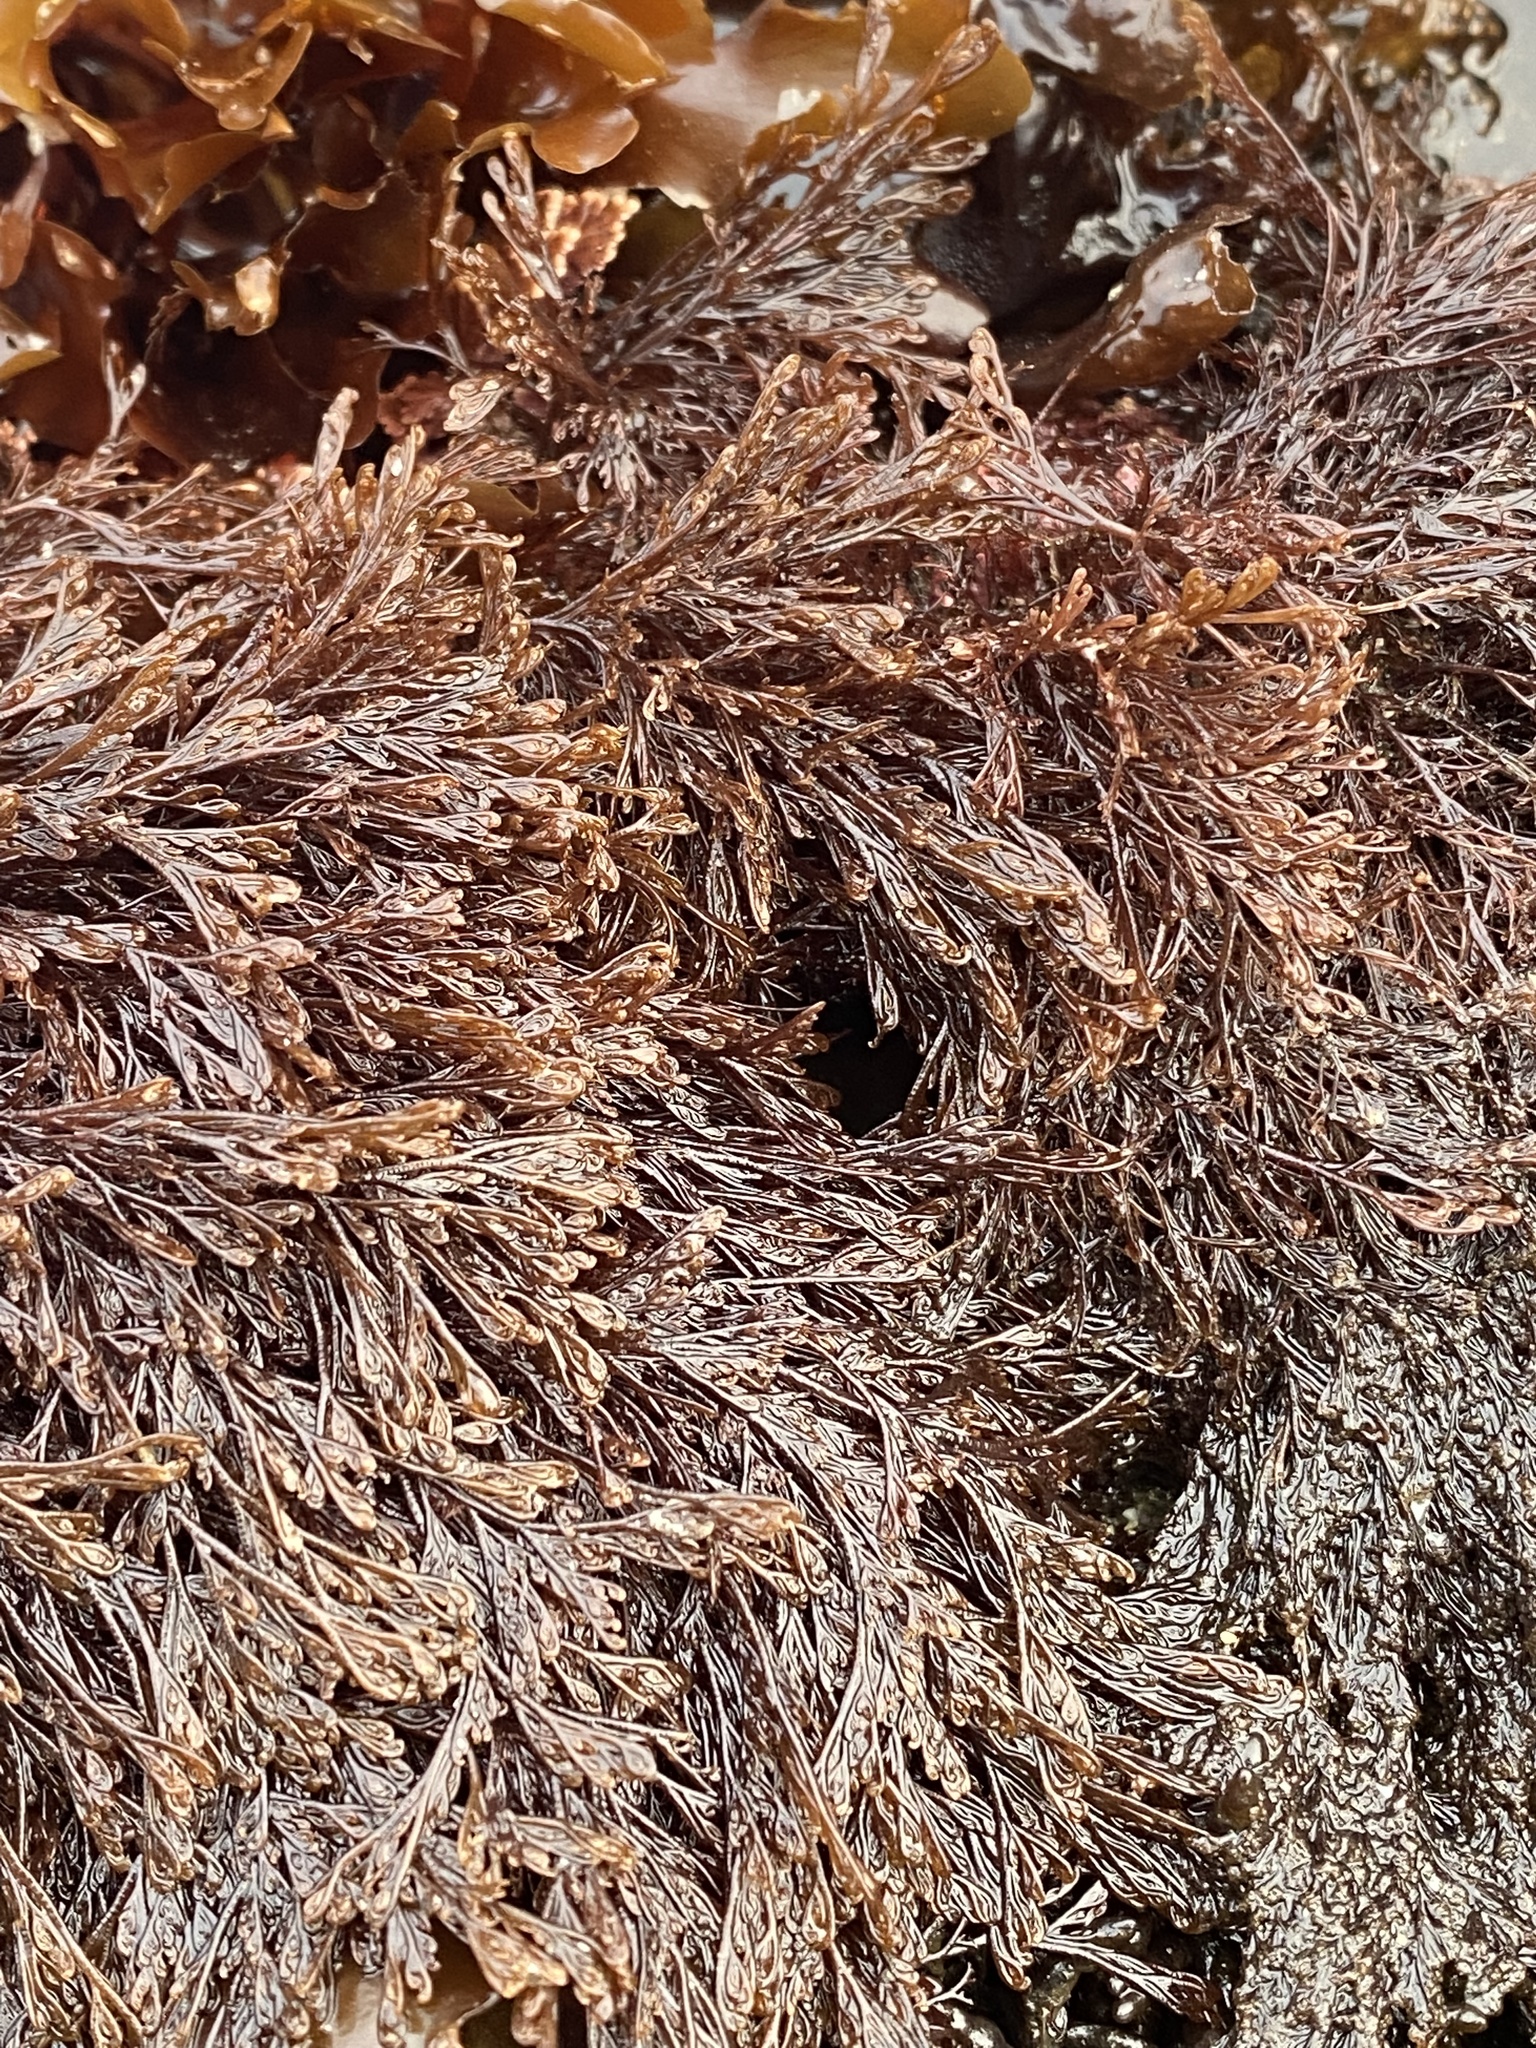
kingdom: Plantae
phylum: Rhodophyta
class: Florideophyceae
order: Ceramiales
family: Ceramiaceae
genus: Microcladia
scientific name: Microcladia borealis
